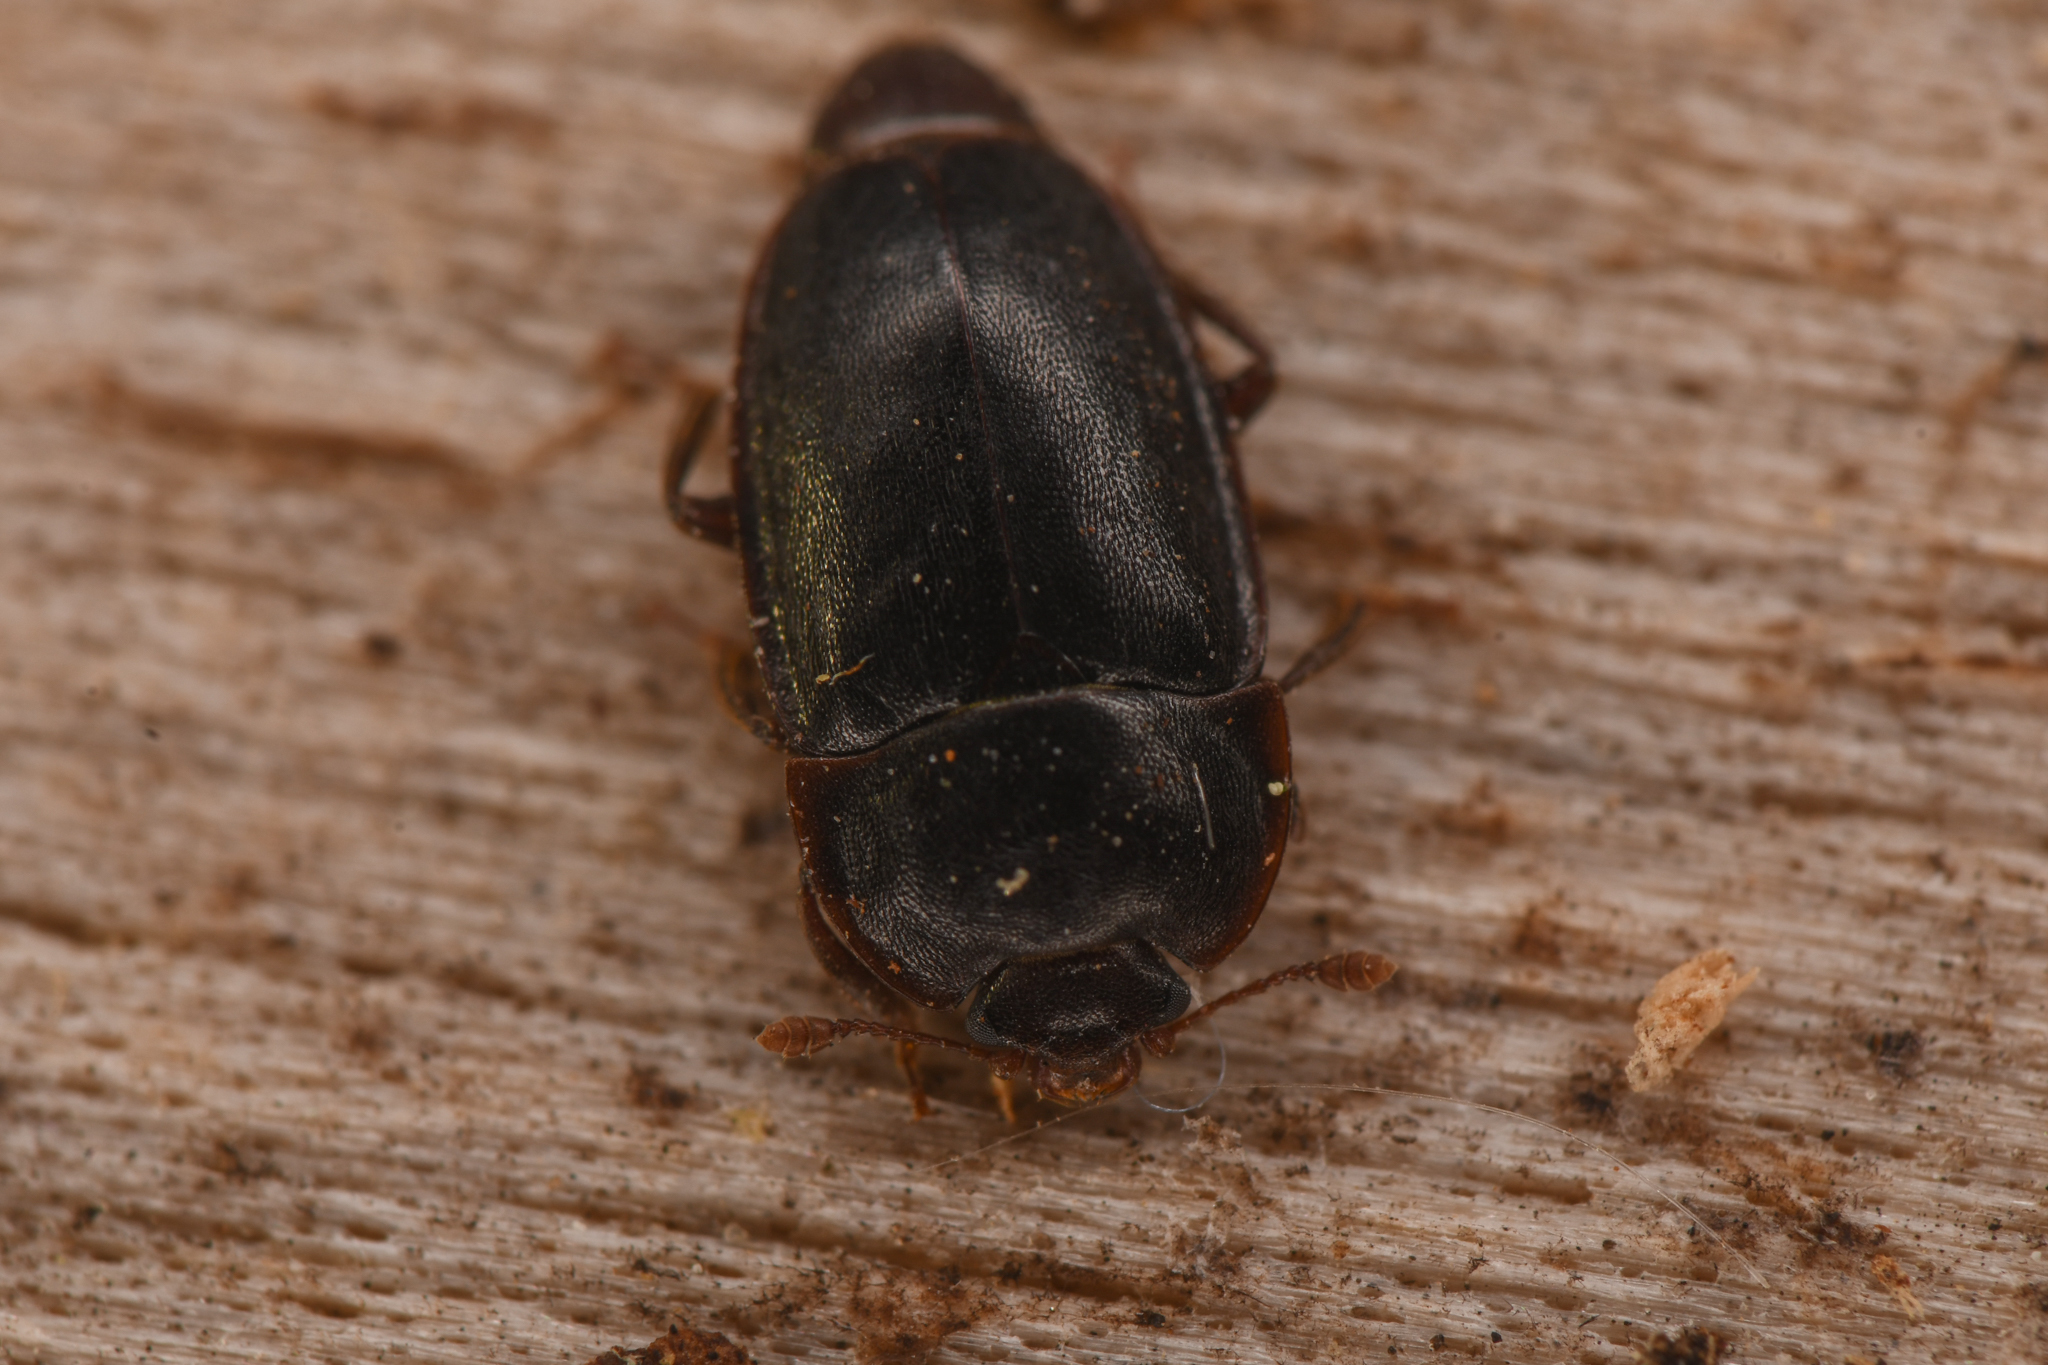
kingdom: Animalia
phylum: Arthropoda
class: Insecta
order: Coleoptera
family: Nitidulidae
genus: Epuraea
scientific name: Epuraea monogama
